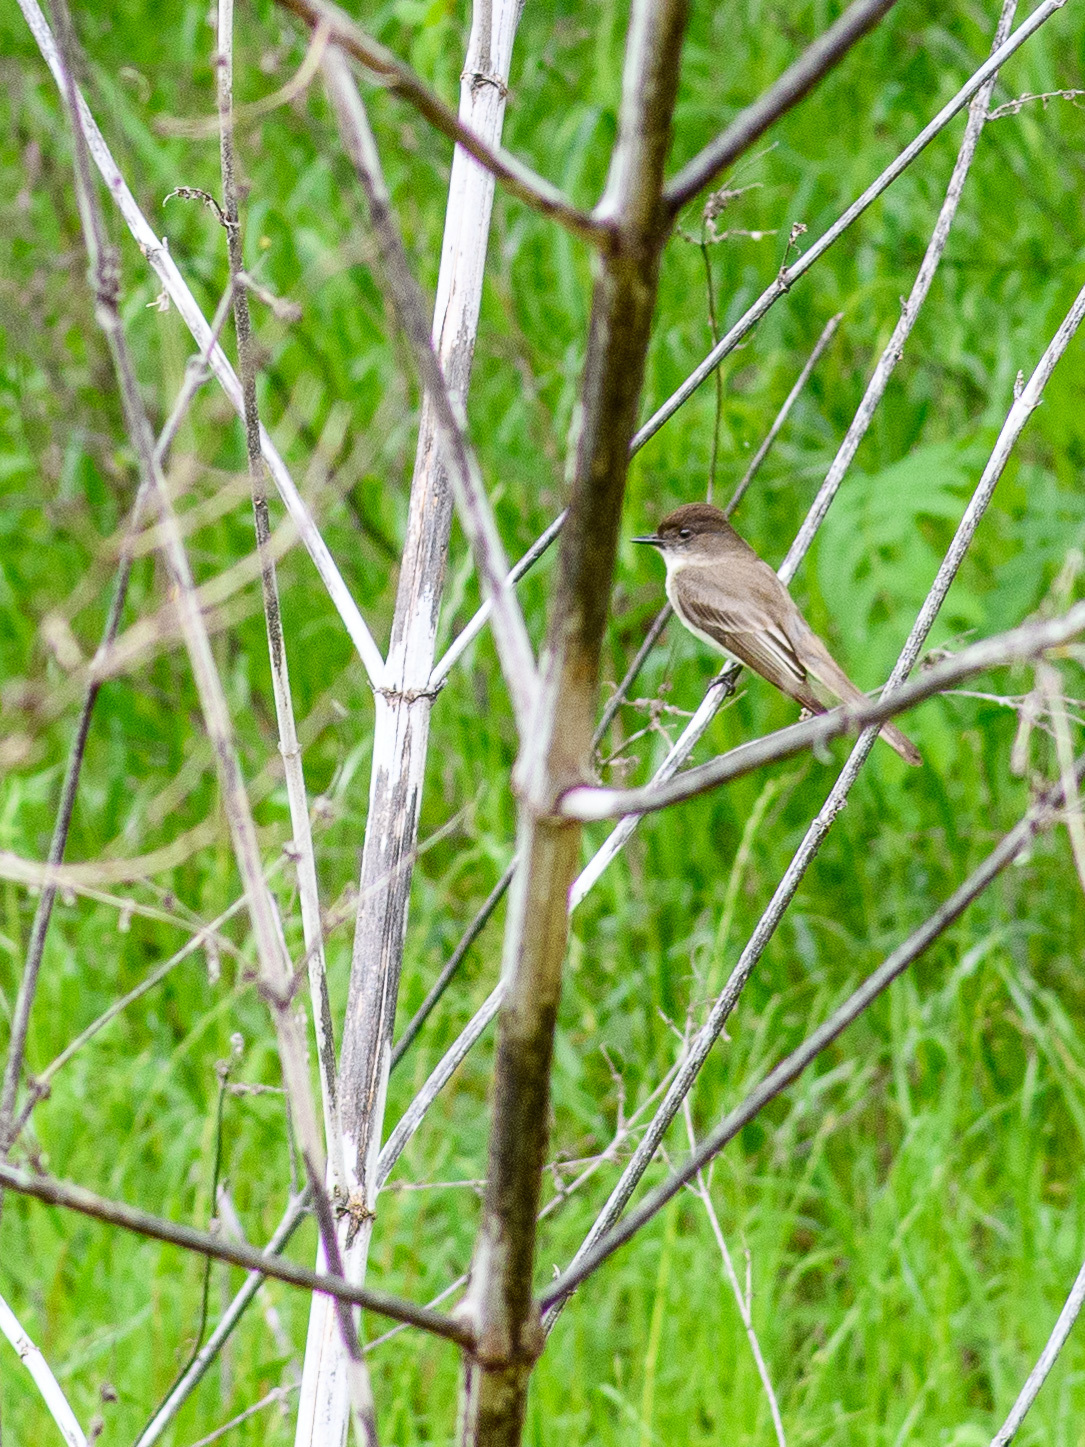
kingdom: Animalia
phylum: Chordata
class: Aves
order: Passeriformes
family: Tyrannidae
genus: Sayornis
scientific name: Sayornis phoebe
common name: Eastern phoebe
